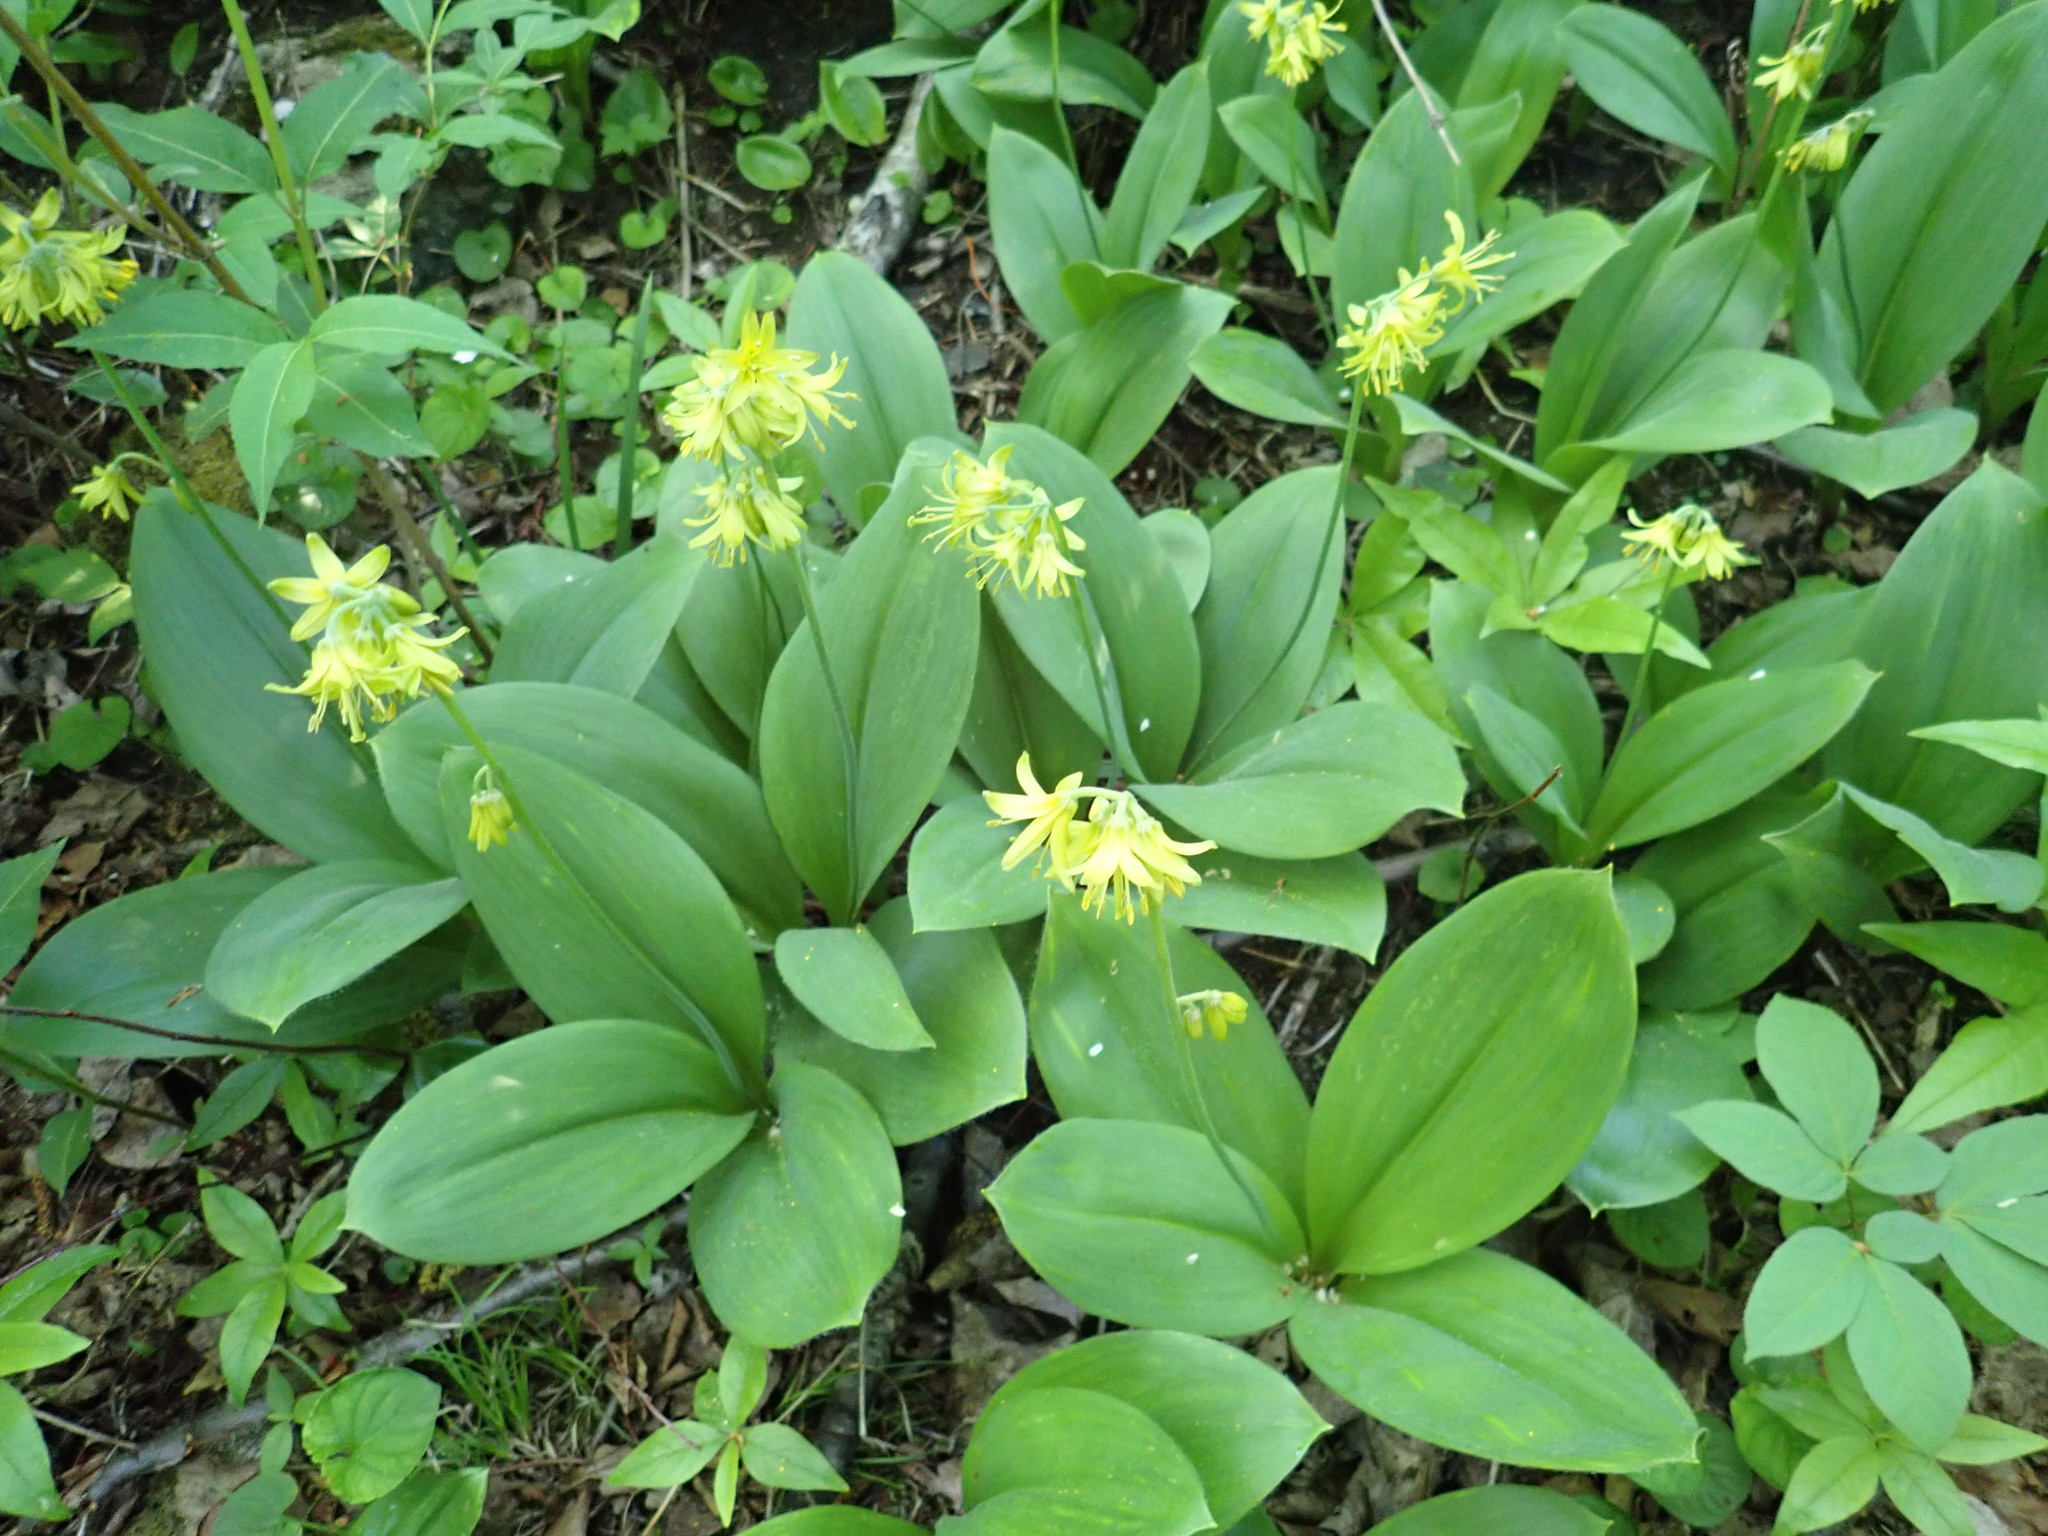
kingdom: Plantae
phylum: Tracheophyta
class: Liliopsida
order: Liliales
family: Liliaceae
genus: Clintonia
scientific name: Clintonia borealis
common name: Yellow clintonia
